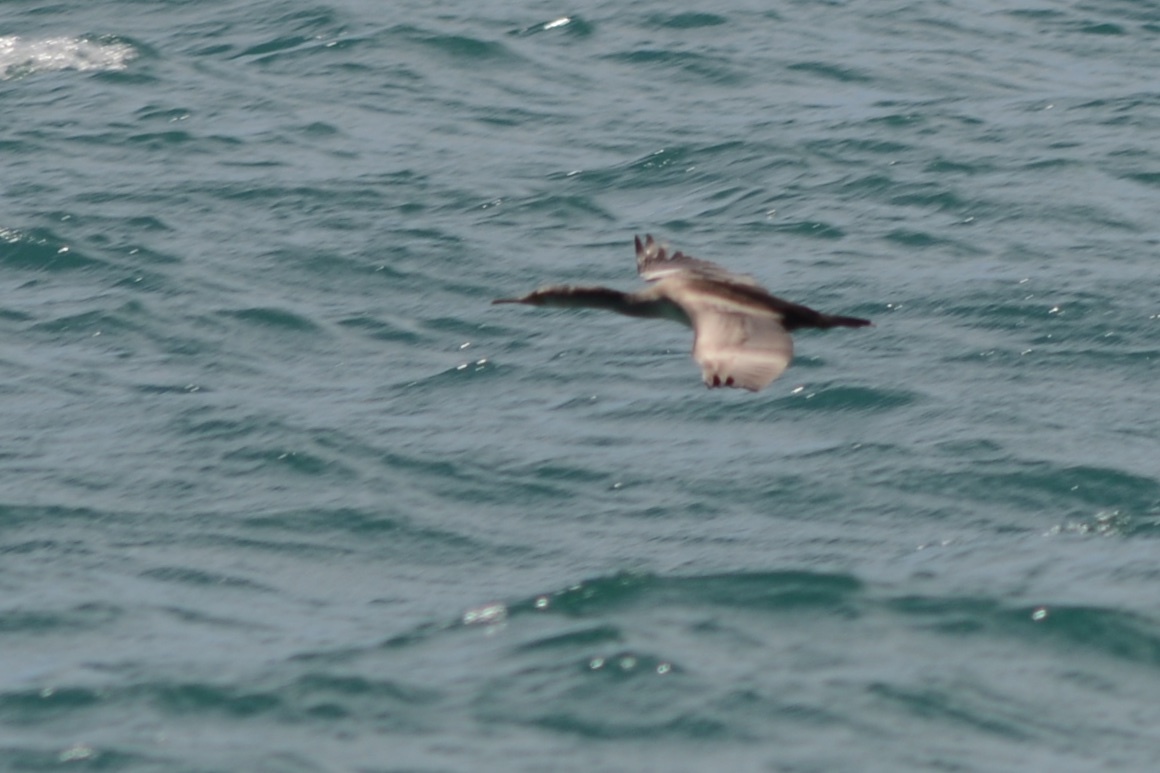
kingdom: Animalia
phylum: Chordata
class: Aves
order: Suliformes
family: Phalacrocoracidae
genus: Phalacrocorax
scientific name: Phalacrocorax punctatus
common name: Spotted shag
